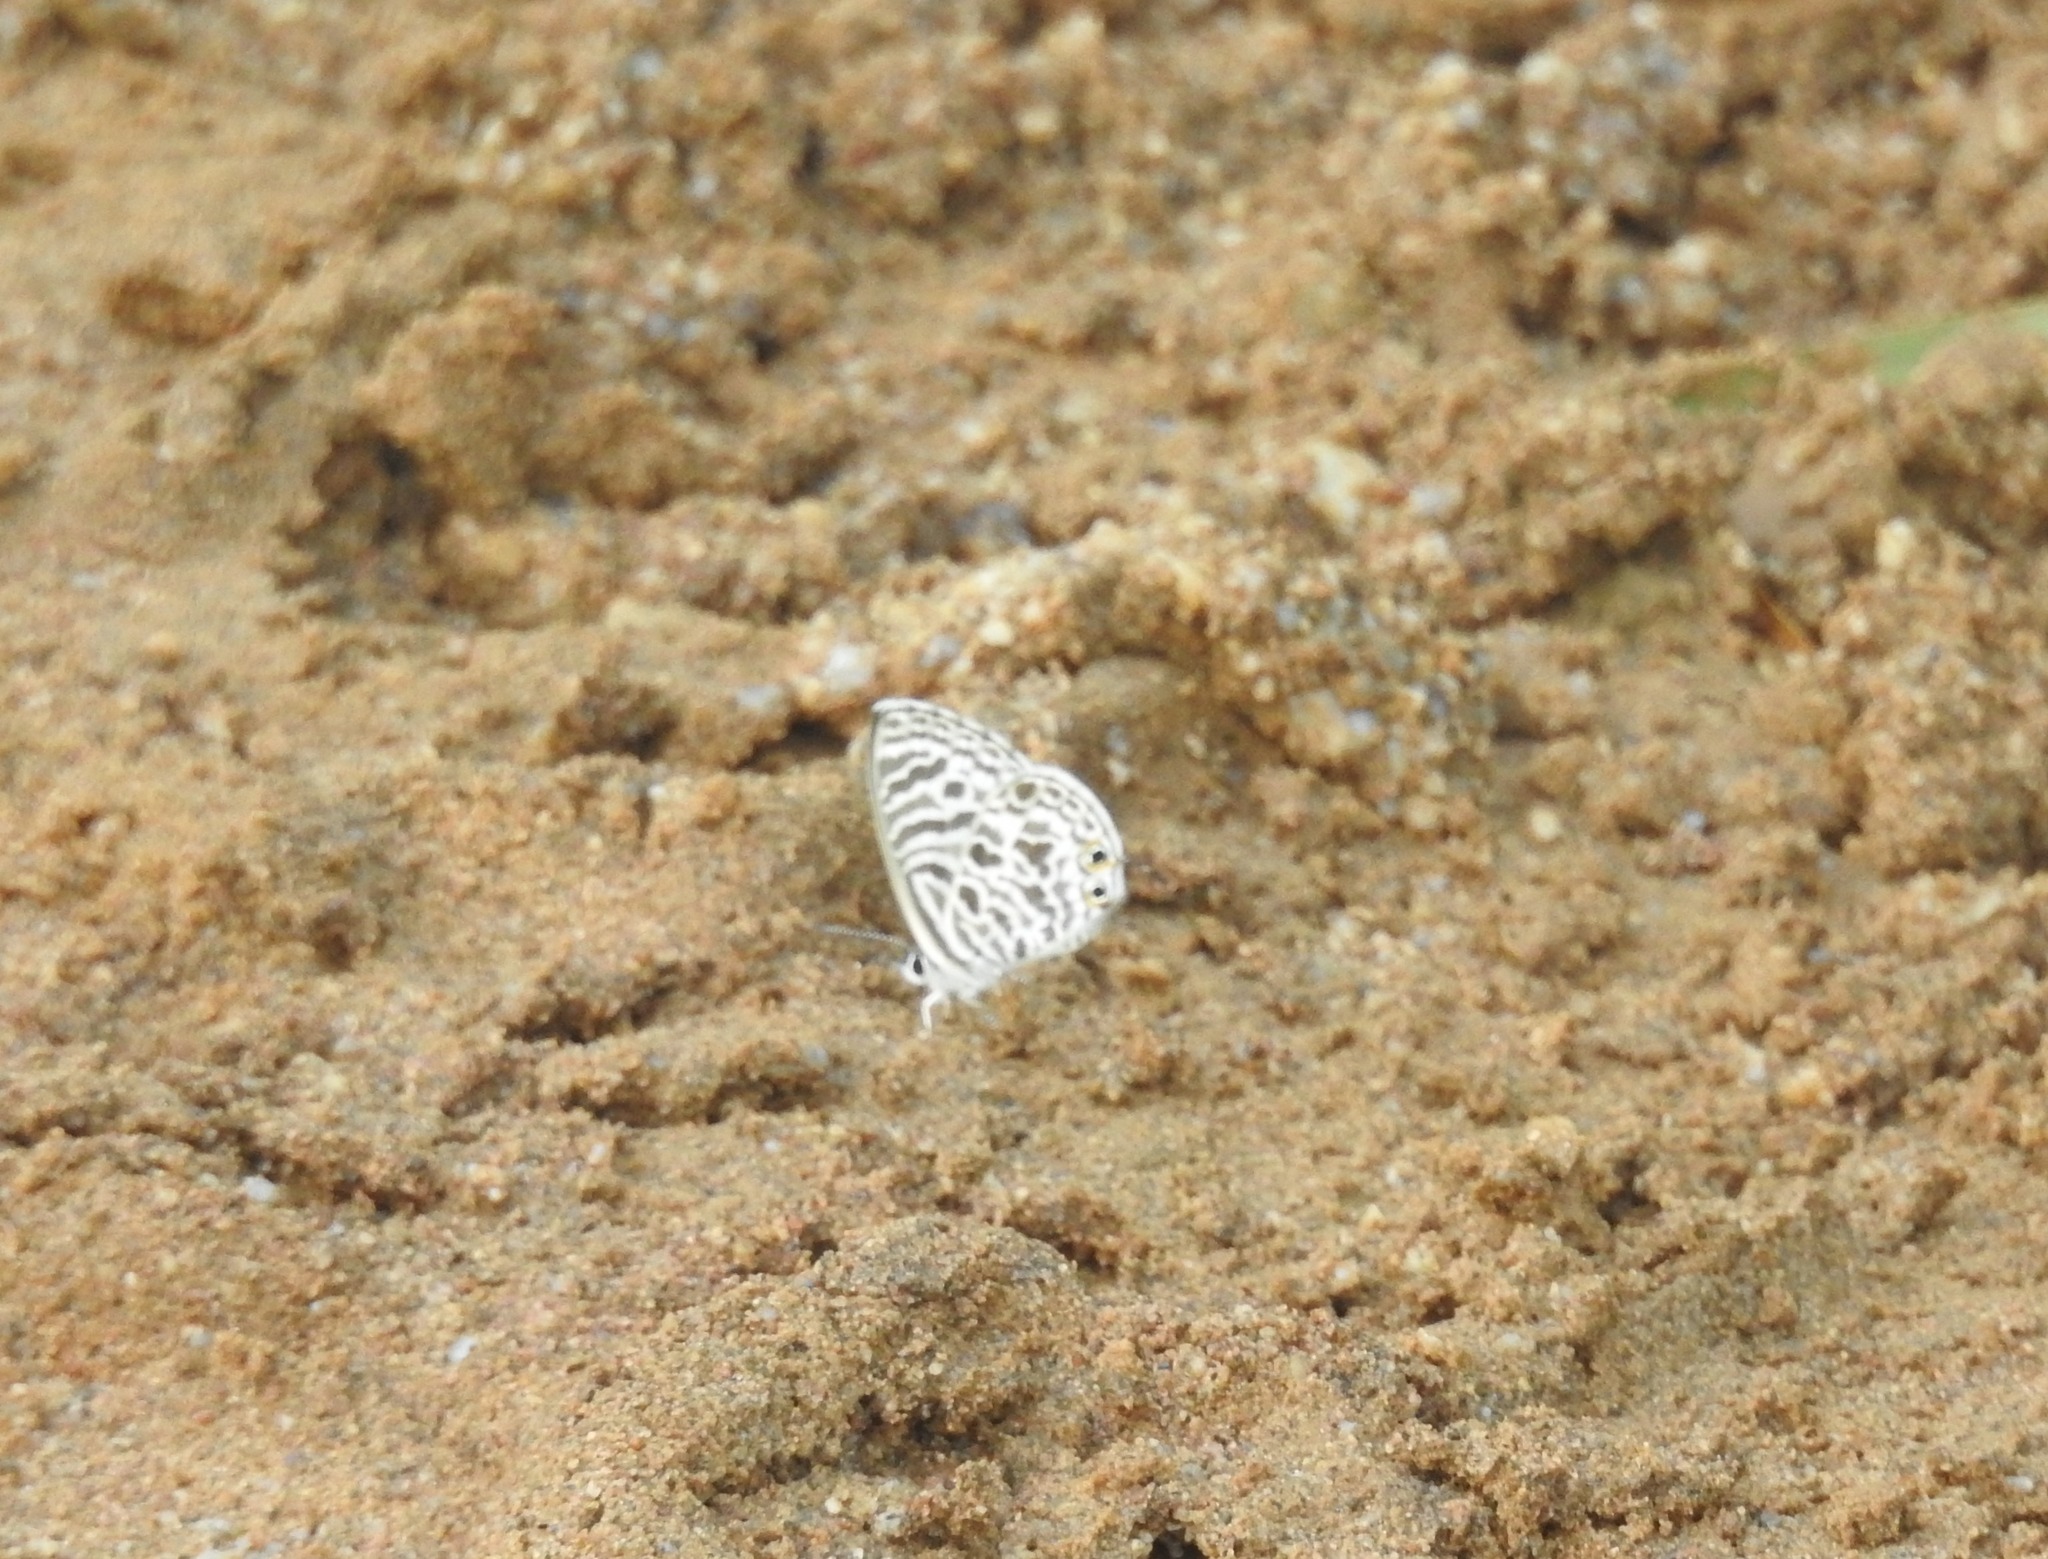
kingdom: Animalia
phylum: Arthropoda
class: Insecta
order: Lepidoptera
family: Lycaenidae
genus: Leptotes
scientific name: Leptotes plinius
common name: Zebra blue
